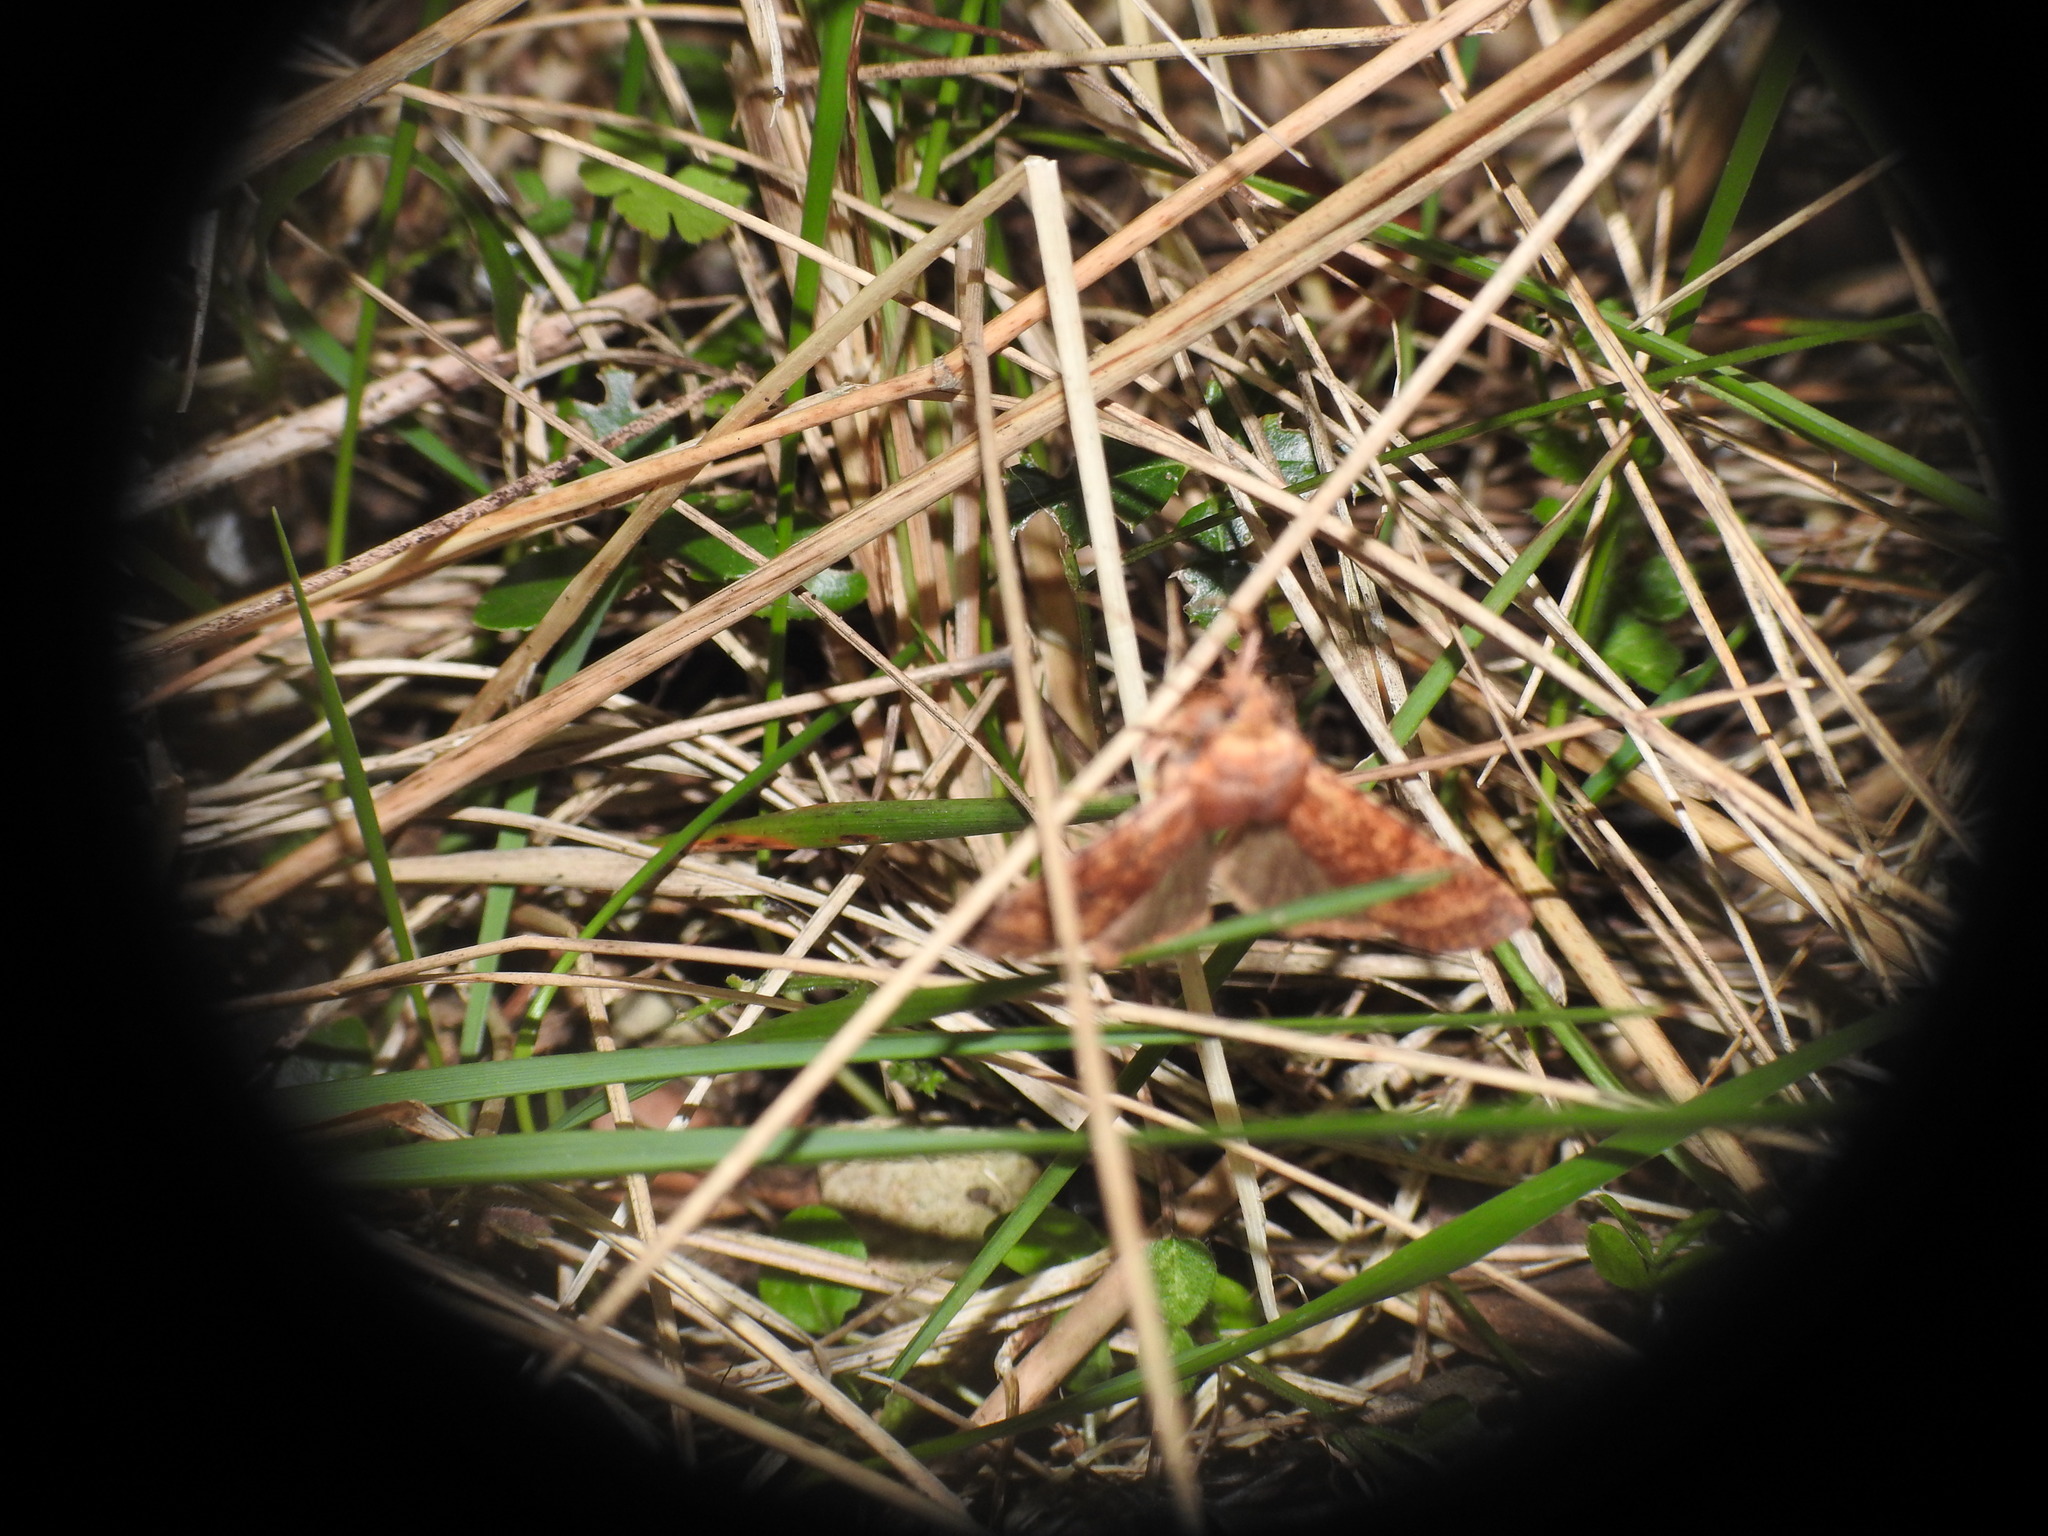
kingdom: Animalia
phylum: Arthropoda
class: Insecta
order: Lepidoptera
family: Noctuidae
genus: Conistra
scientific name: Conistra staudingeri
